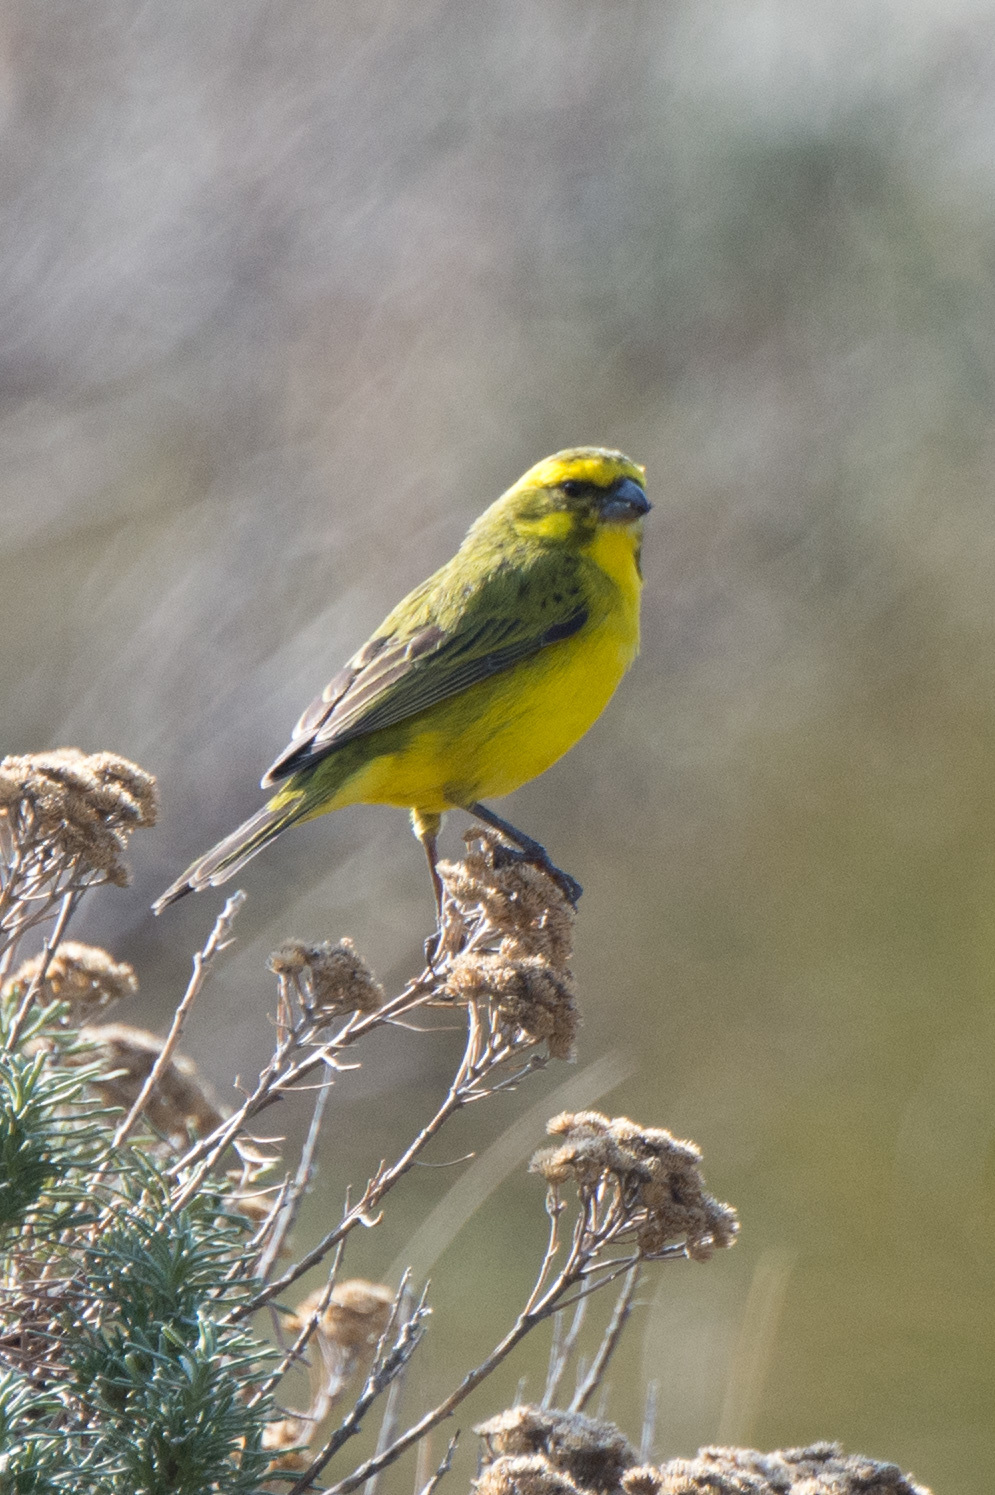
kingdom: Animalia
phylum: Chordata
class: Aves
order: Passeriformes
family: Fringillidae
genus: Crithagra
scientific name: Crithagra flaviventris
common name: Yellow canary
